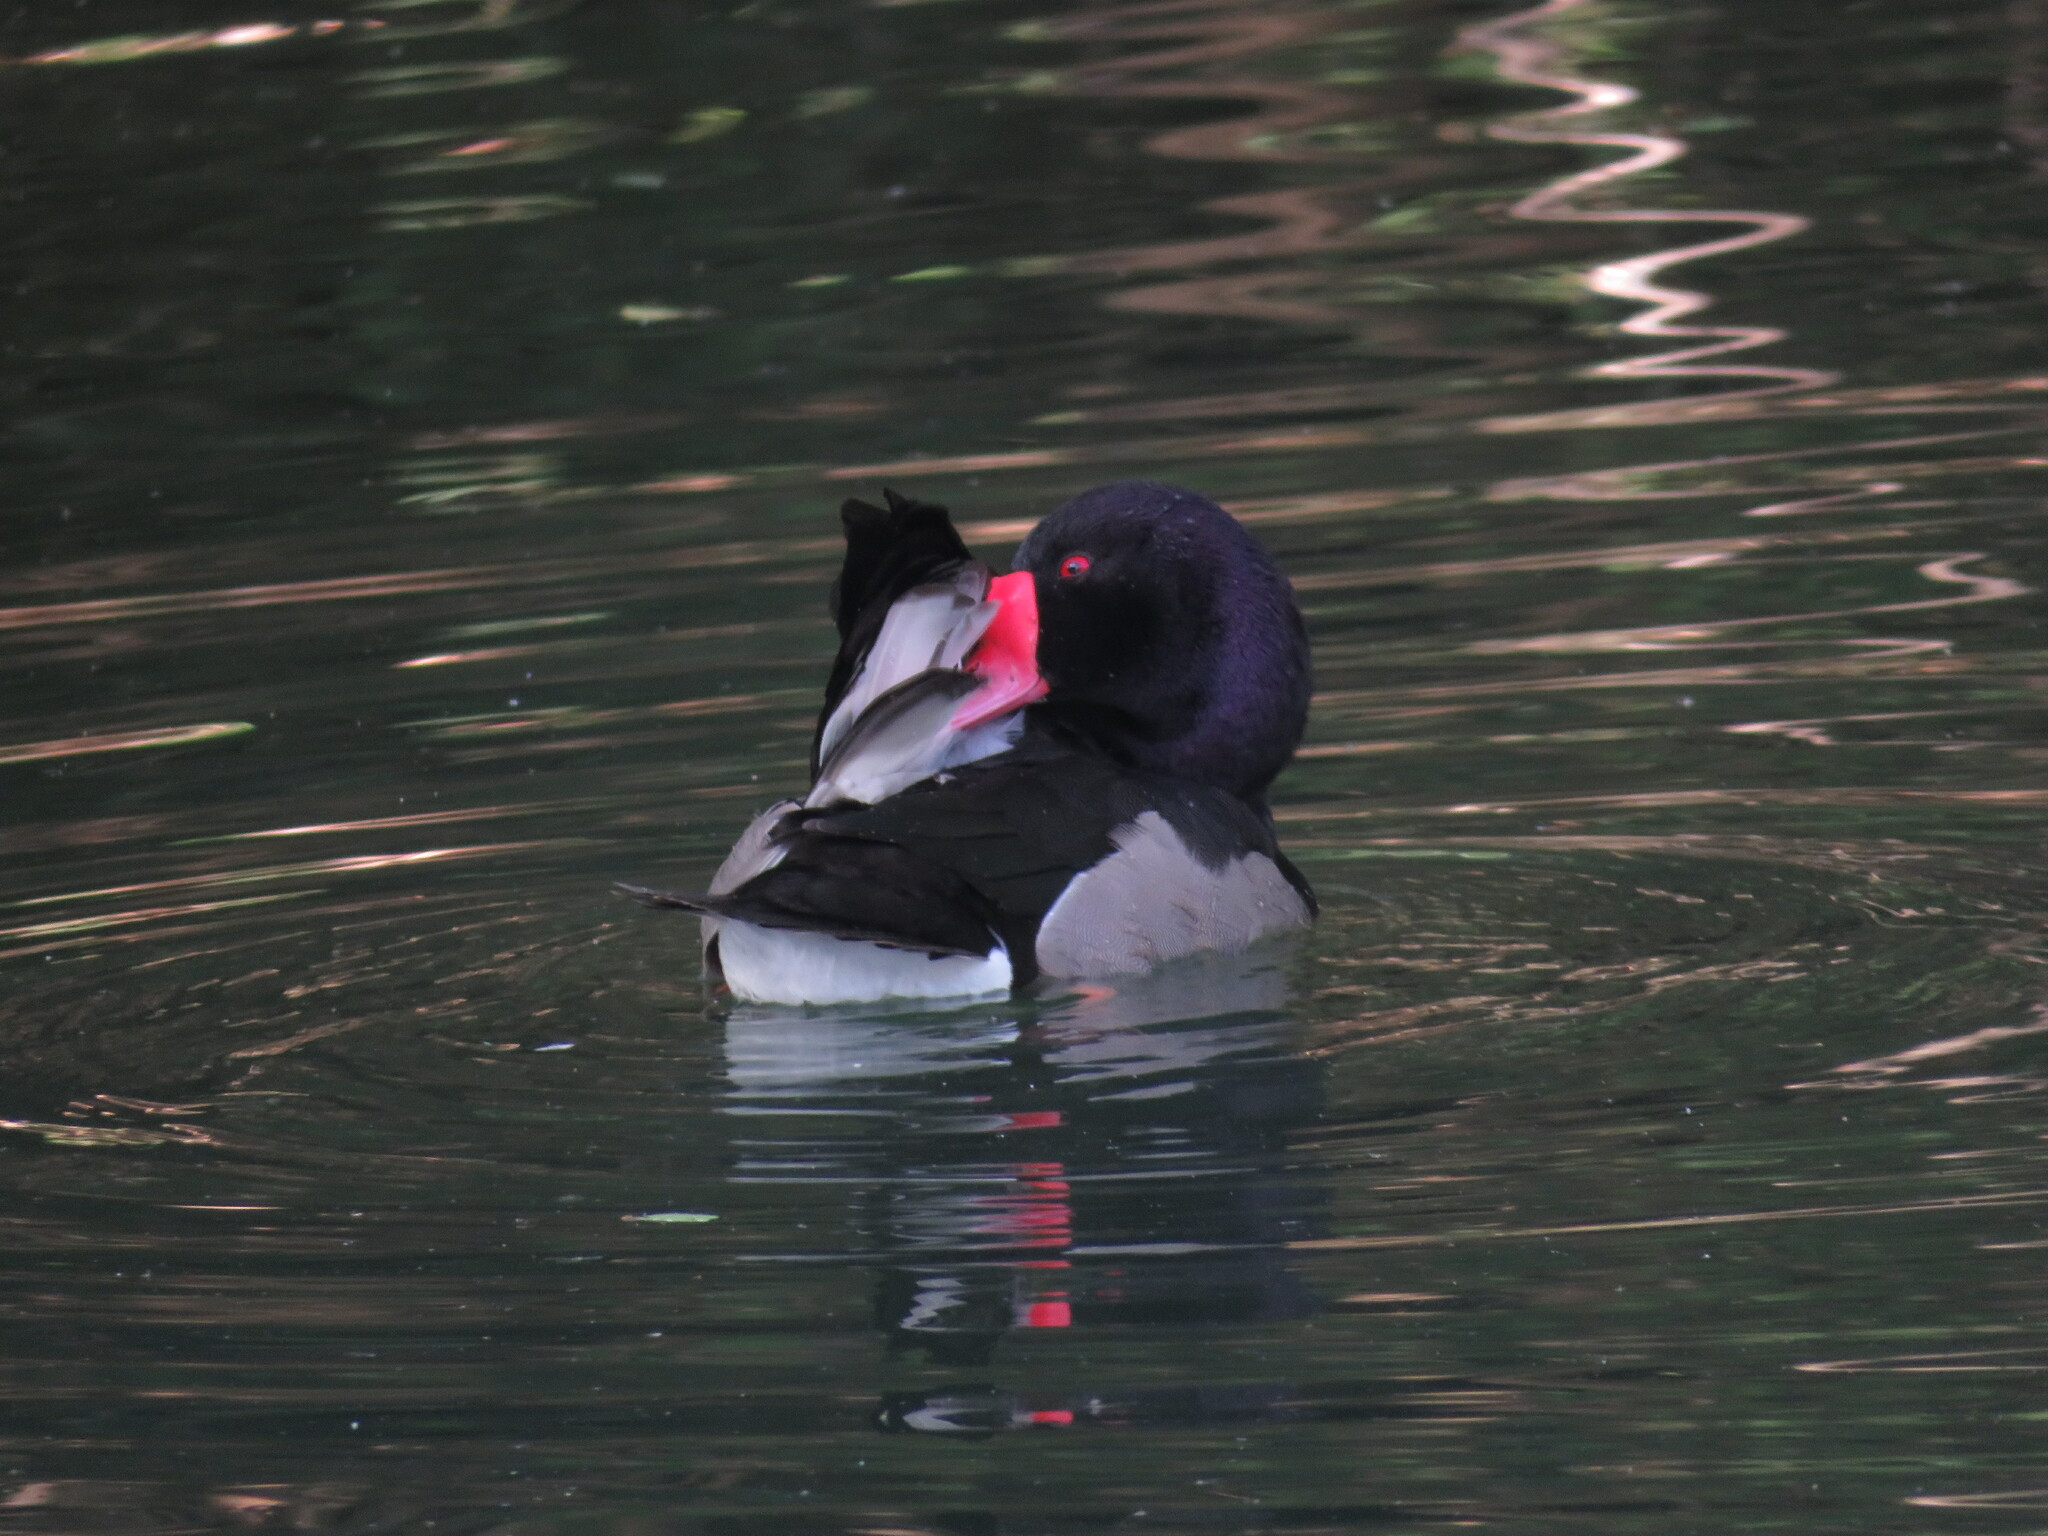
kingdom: Animalia
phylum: Chordata
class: Aves
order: Anseriformes
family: Anatidae
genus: Netta
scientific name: Netta peposaca
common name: Rosy-billed pochard
